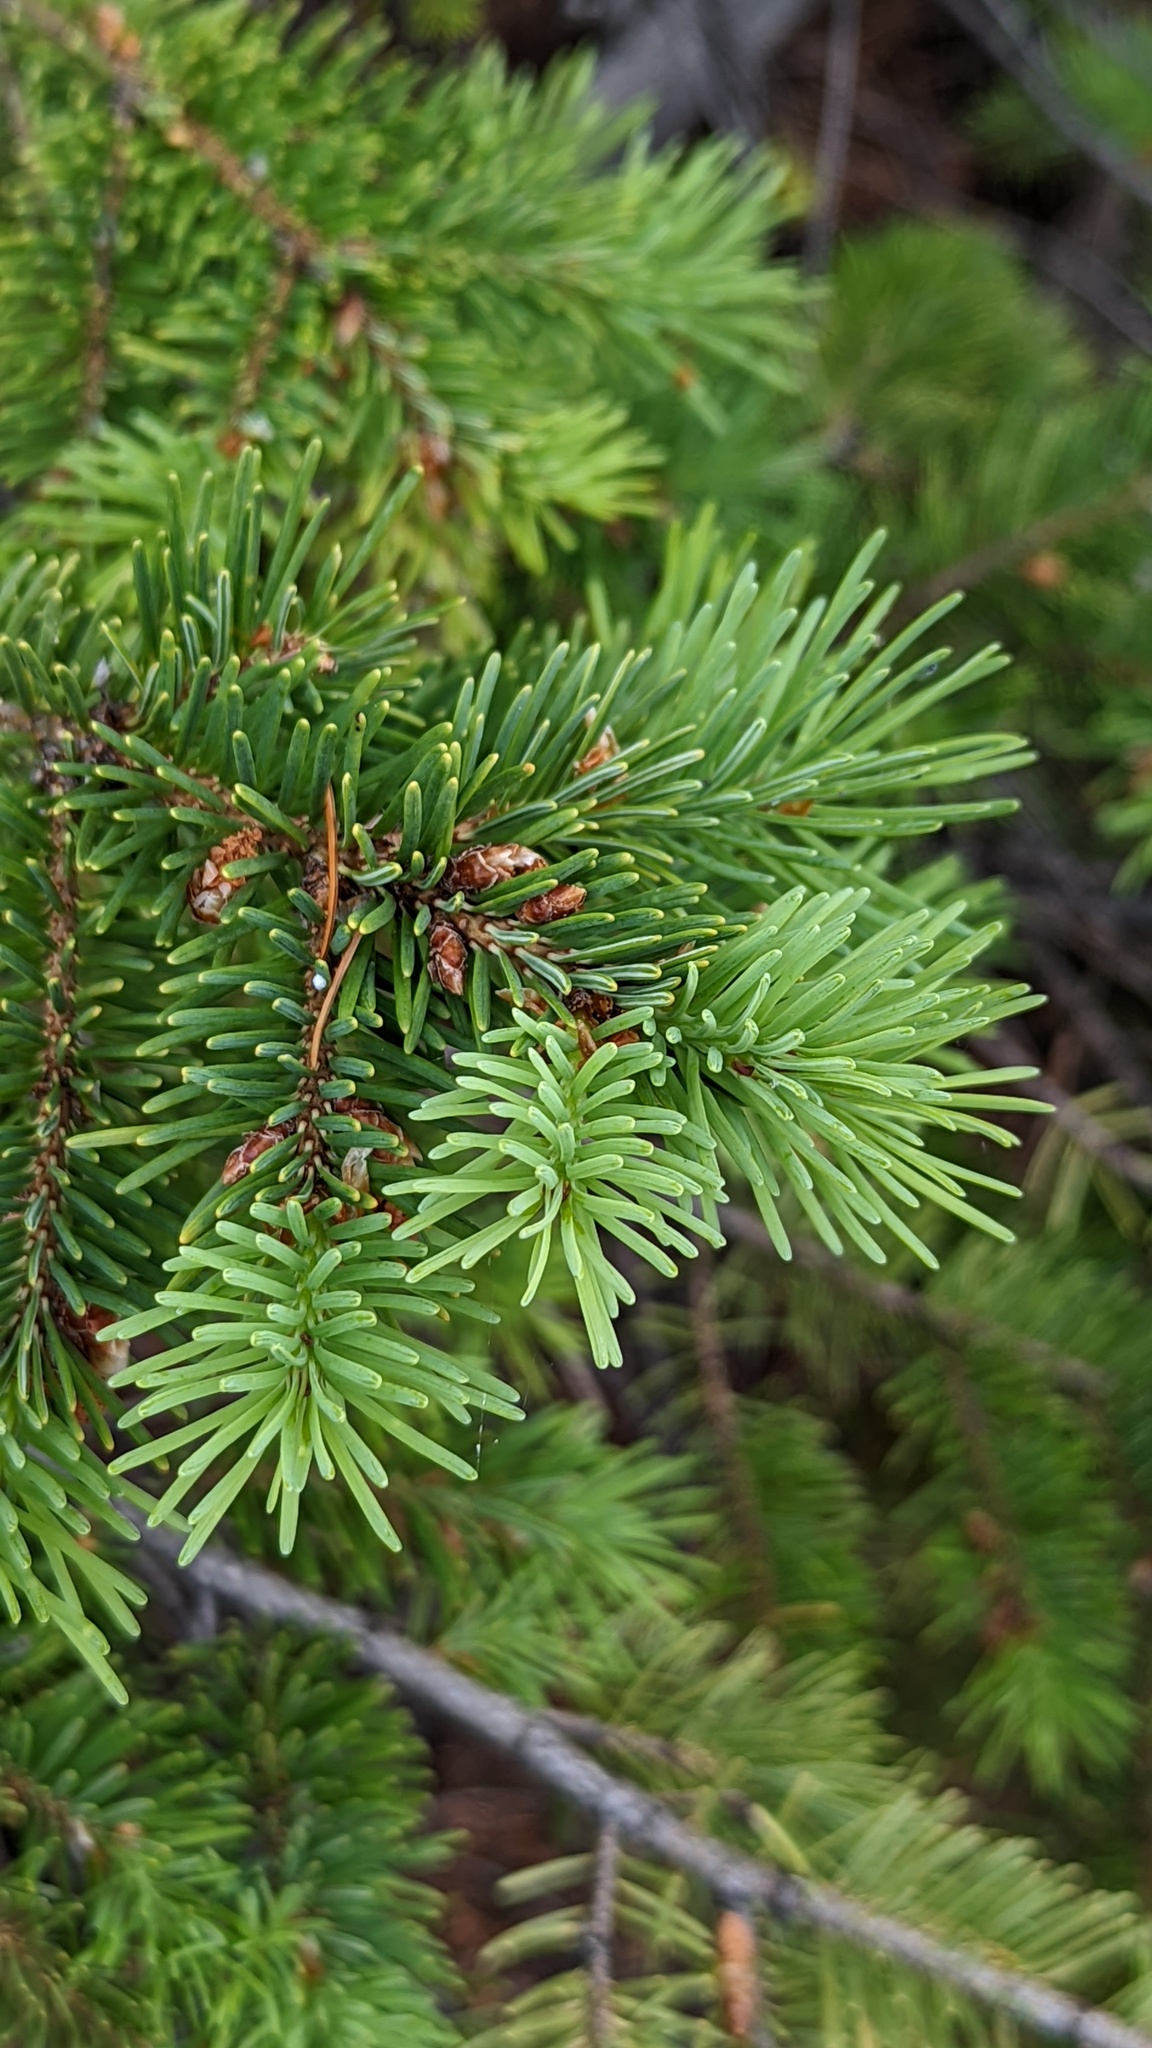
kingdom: Plantae
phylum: Tracheophyta
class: Pinopsida
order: Pinales
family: Pinaceae
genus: Pseudotsuga
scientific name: Pseudotsuga menziesii
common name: Douglas fir
